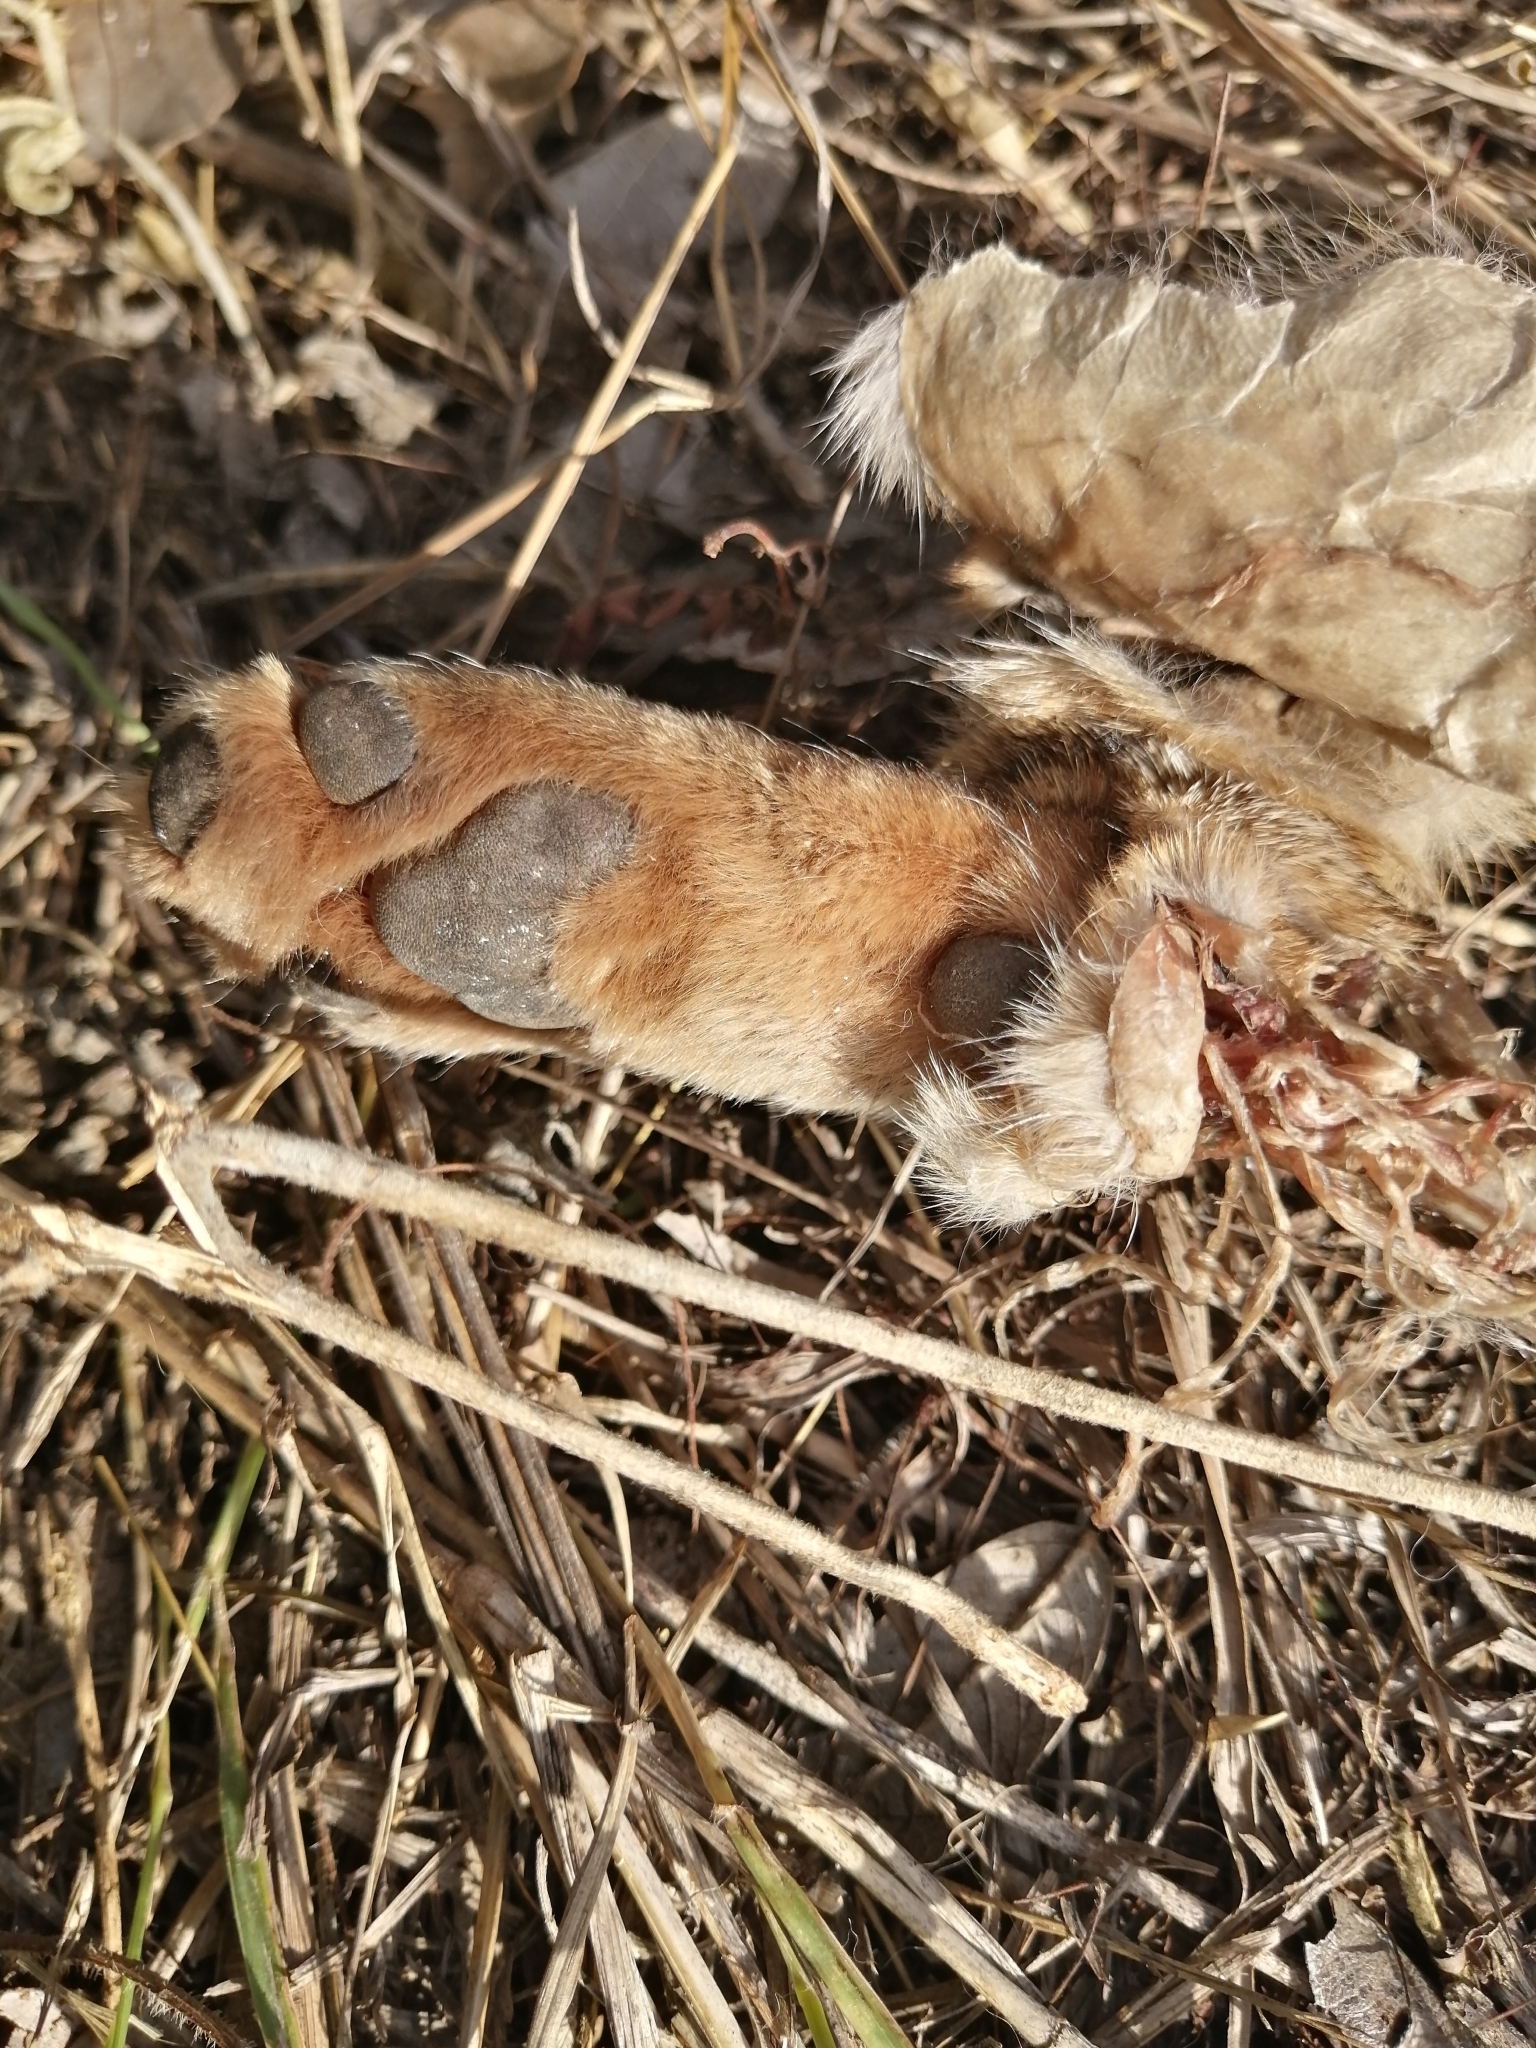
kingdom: Animalia
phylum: Chordata
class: Mammalia
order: Carnivora
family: Canidae
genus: Urocyon
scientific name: Urocyon cinereoargenteus
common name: Gray fox
